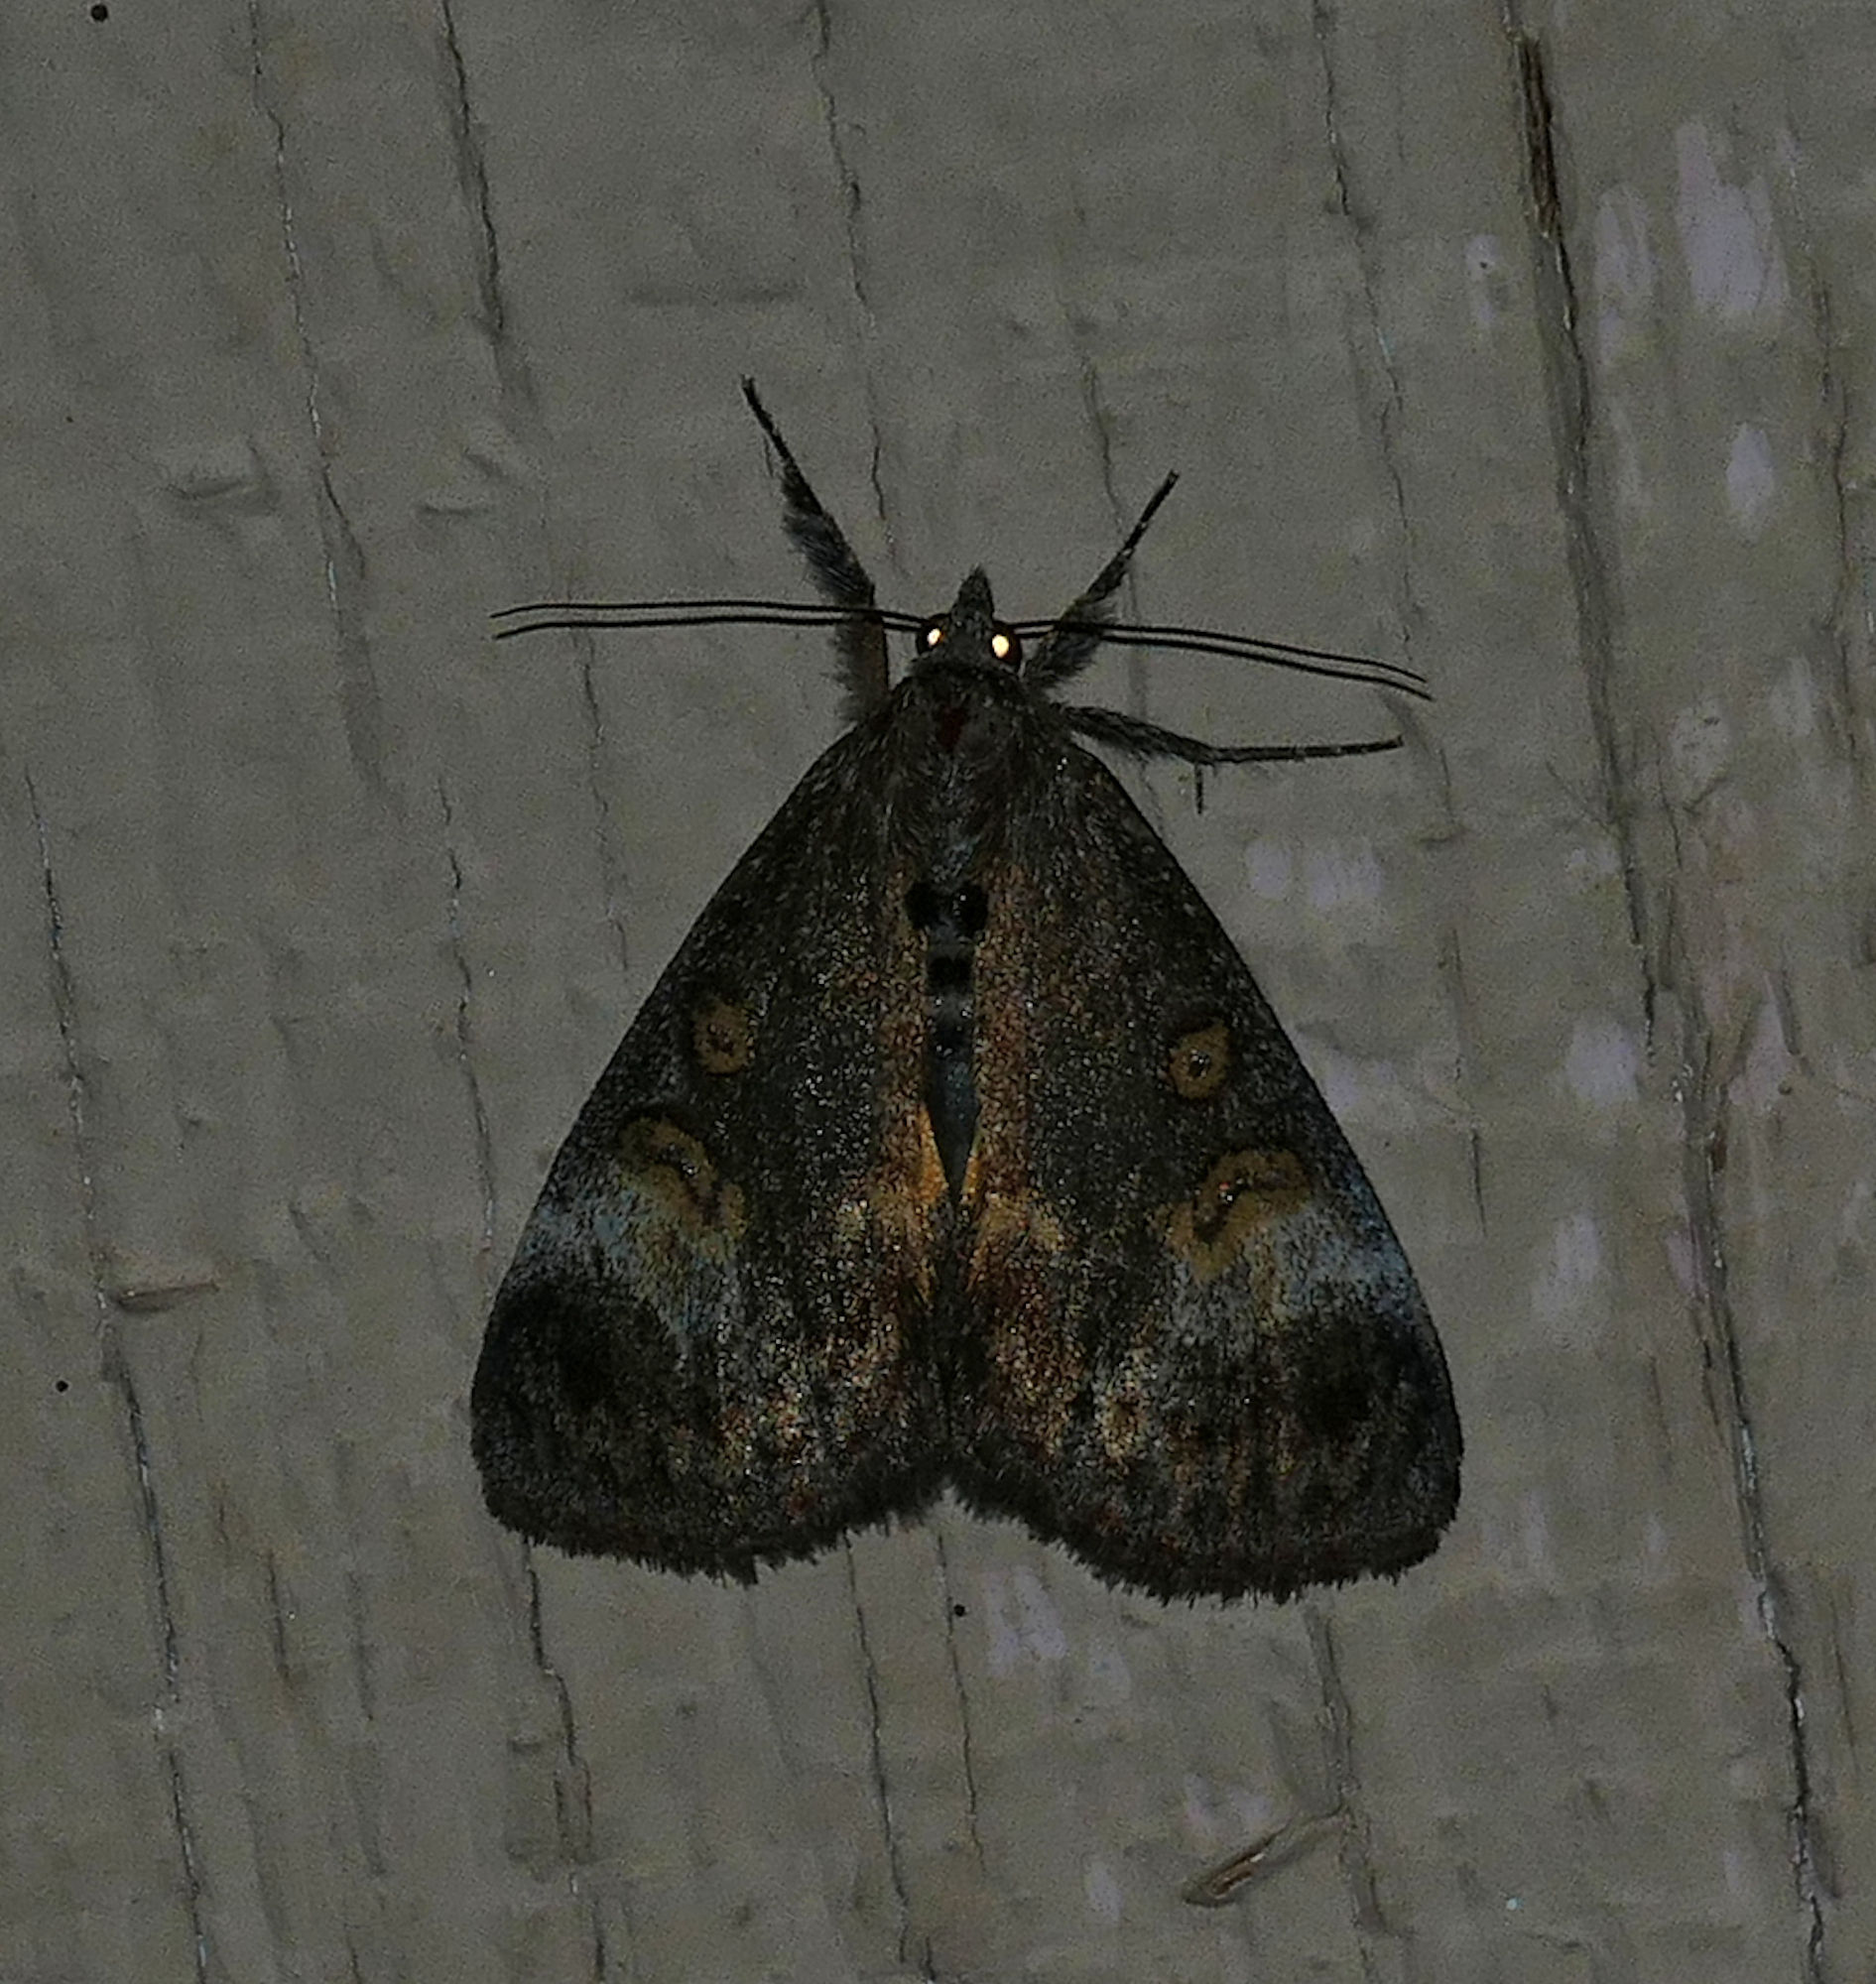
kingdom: Animalia
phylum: Arthropoda
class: Insecta
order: Lepidoptera
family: Noctuidae
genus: Gerra
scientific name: Gerra sevorsa
